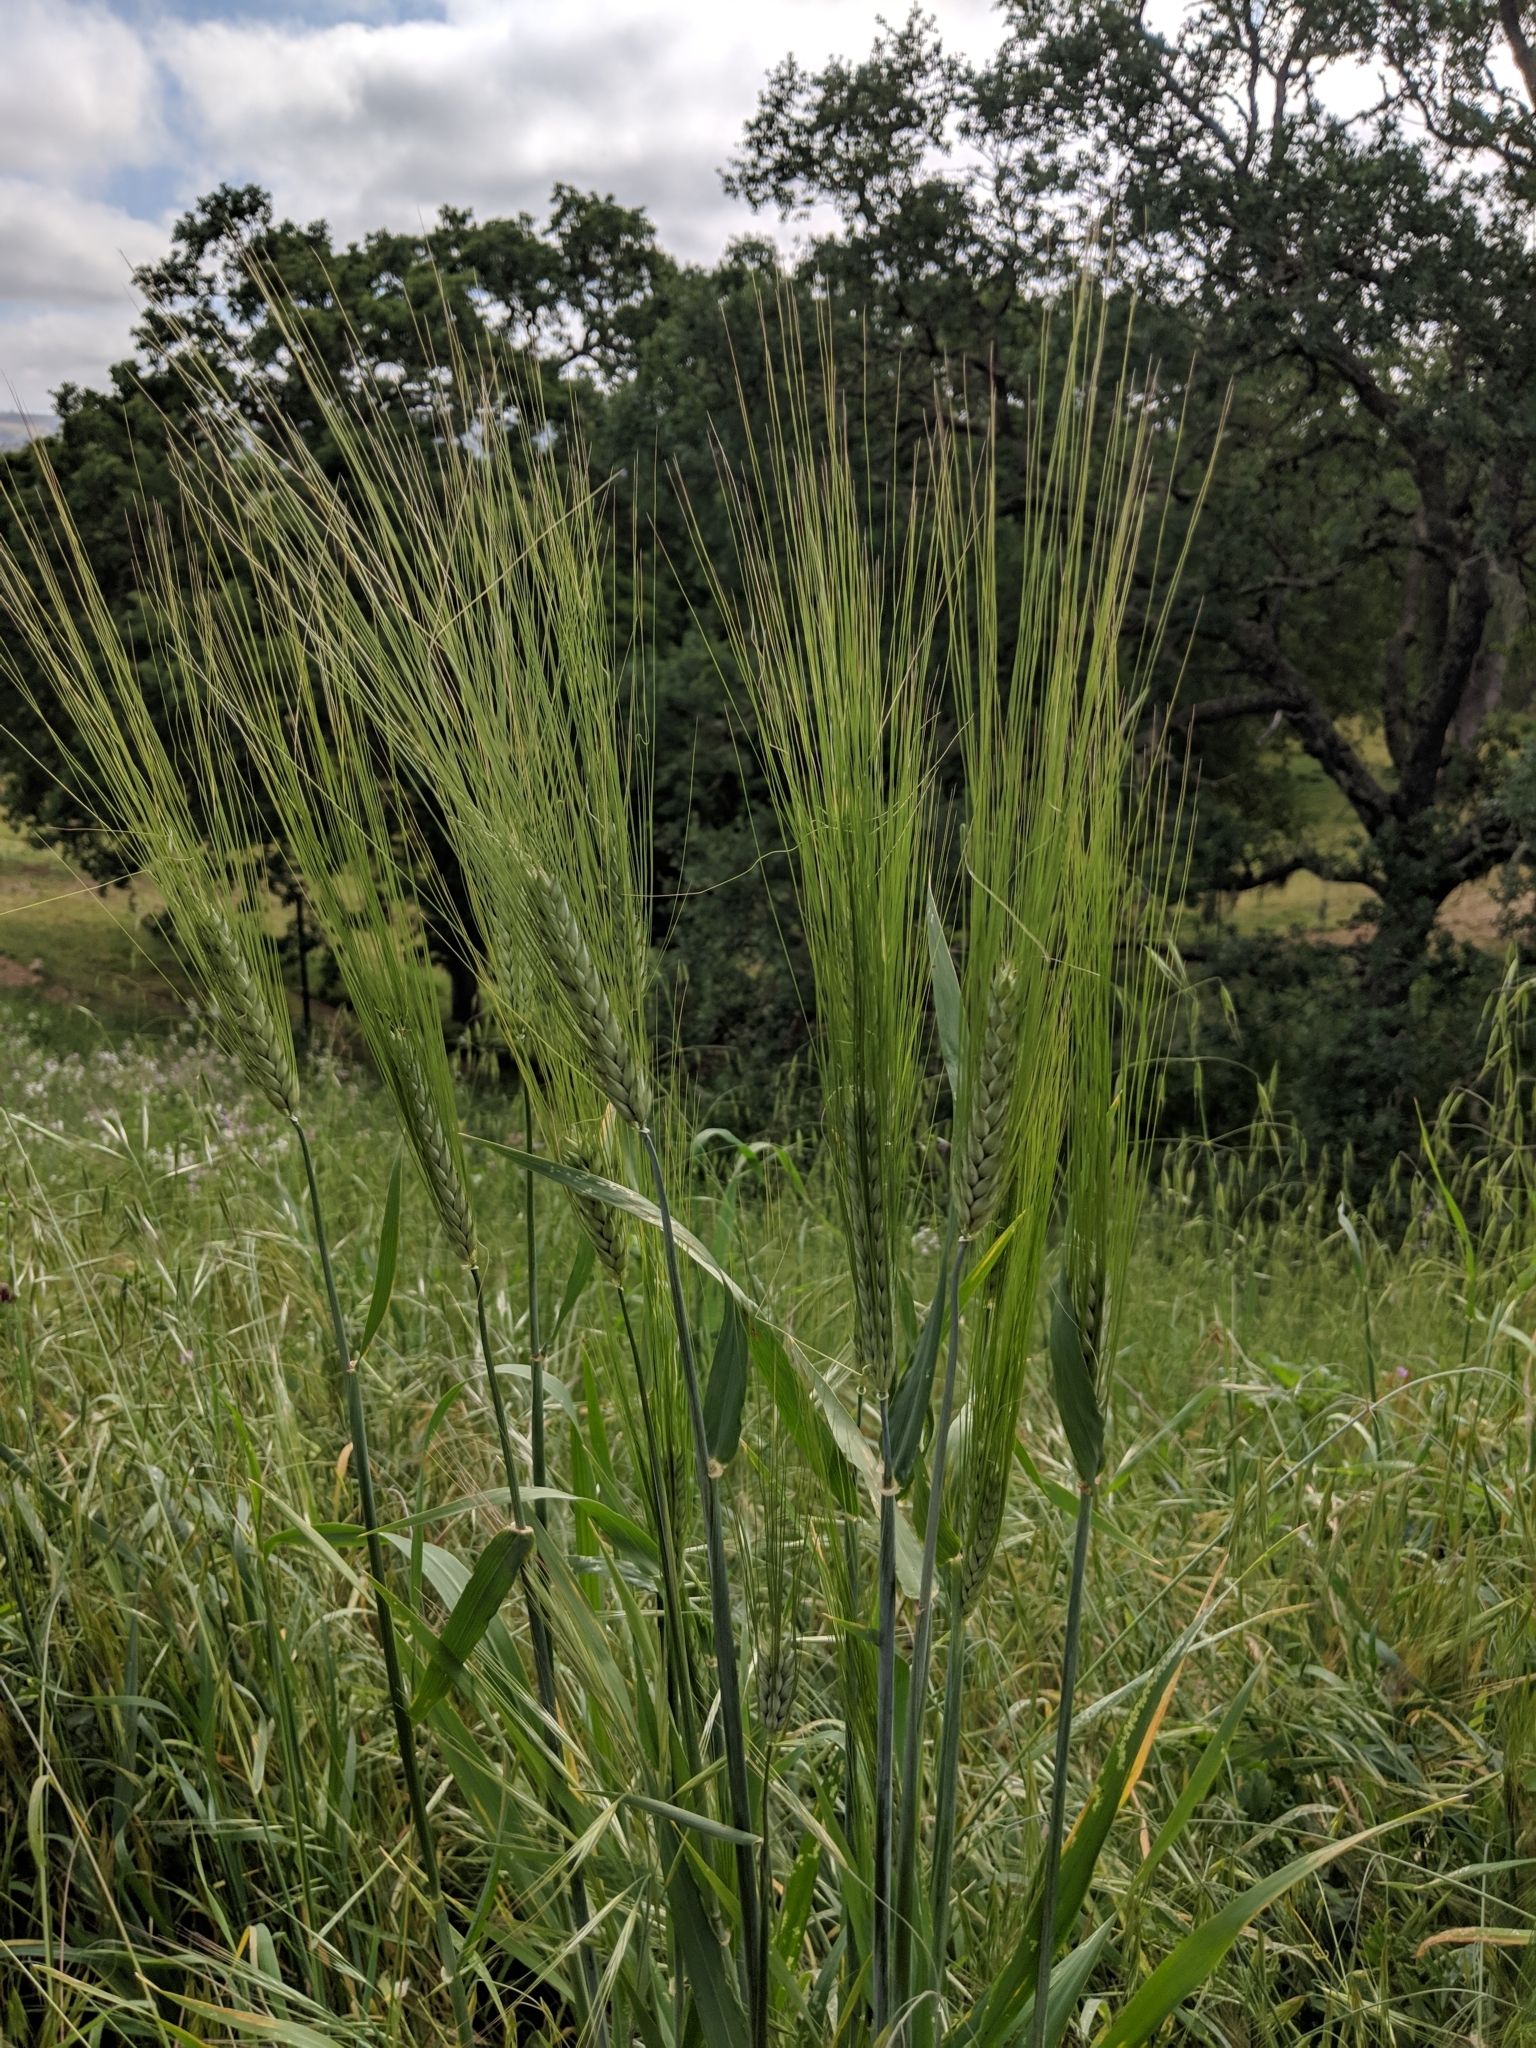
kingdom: Plantae
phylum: Tracheophyta
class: Liliopsida
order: Poales
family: Poaceae
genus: Hordeum
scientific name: Hordeum vulgare
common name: Common barley
